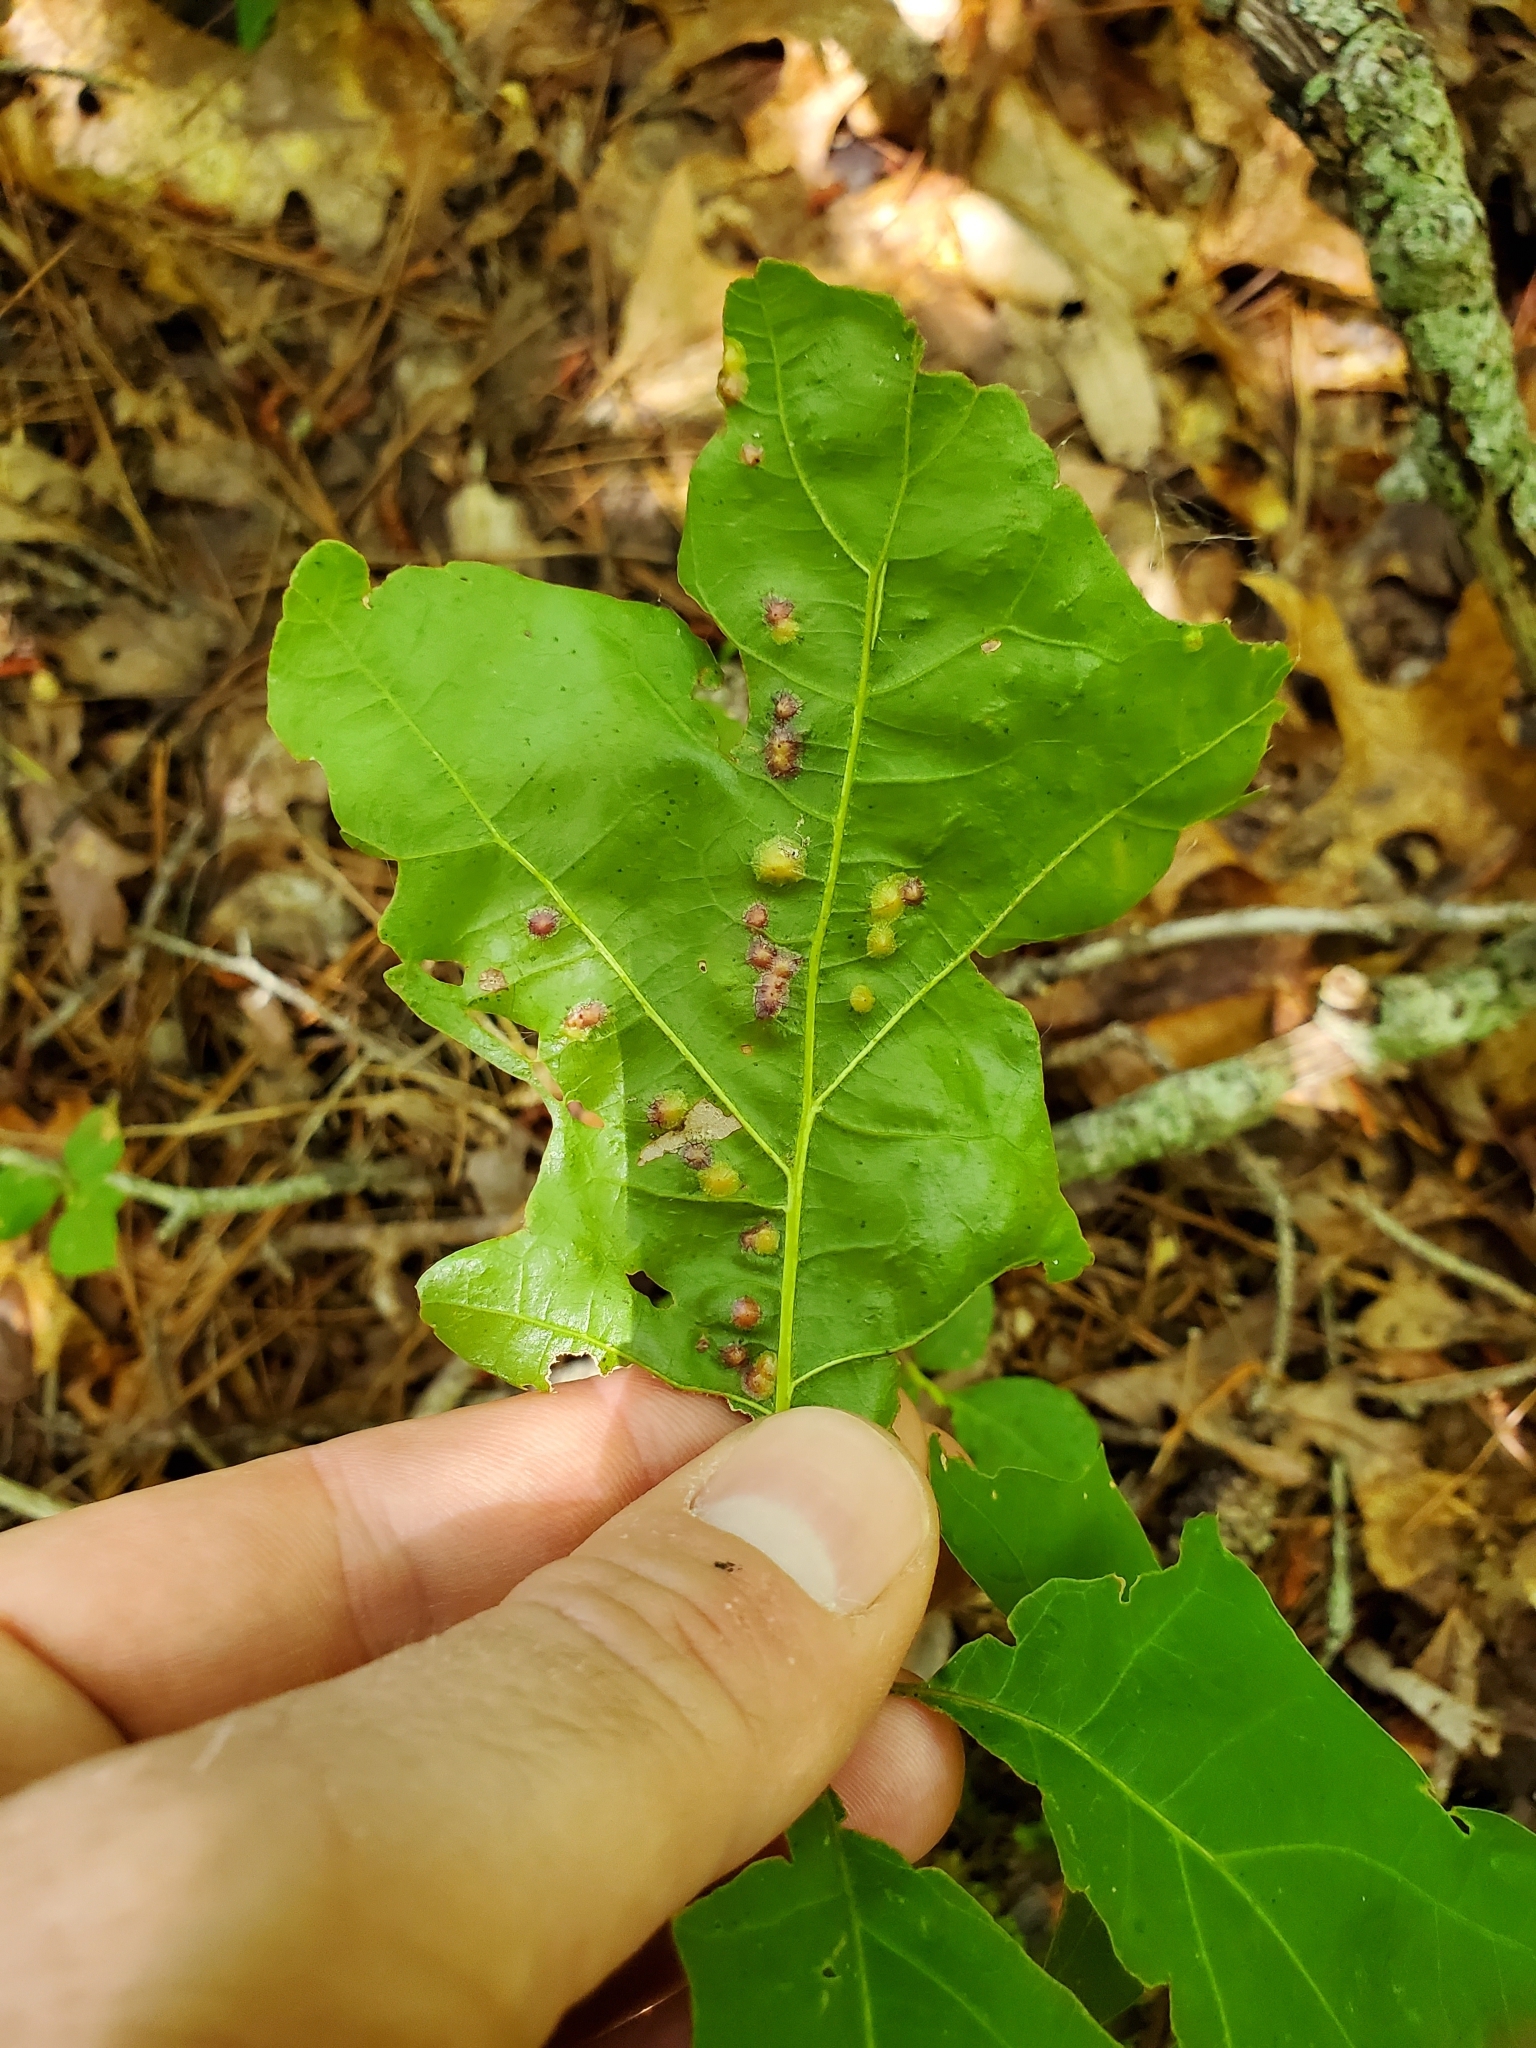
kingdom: Animalia
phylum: Arthropoda
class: Insecta
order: Diptera
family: Cecidomyiidae
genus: Polystepha
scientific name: Polystepha pilulae
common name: Oak leaf gall midge
